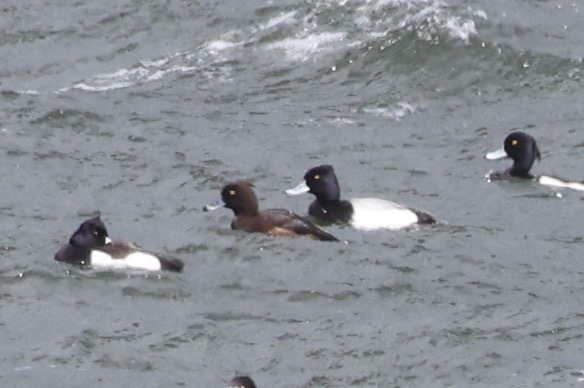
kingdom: Animalia
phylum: Chordata
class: Aves
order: Anseriformes
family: Anatidae
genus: Aythya
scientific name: Aythya affinis
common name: Lesser scaup
